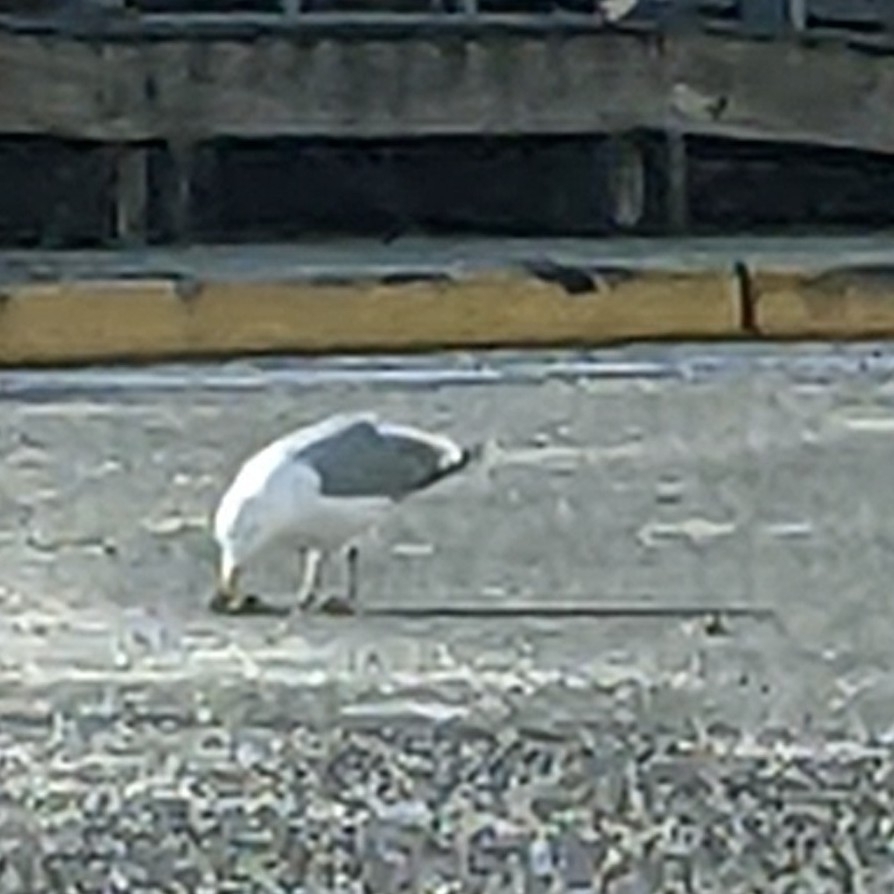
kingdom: Animalia
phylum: Chordata
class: Aves
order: Charadriiformes
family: Laridae
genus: Larus
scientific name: Larus argentatus
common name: Herring gull
